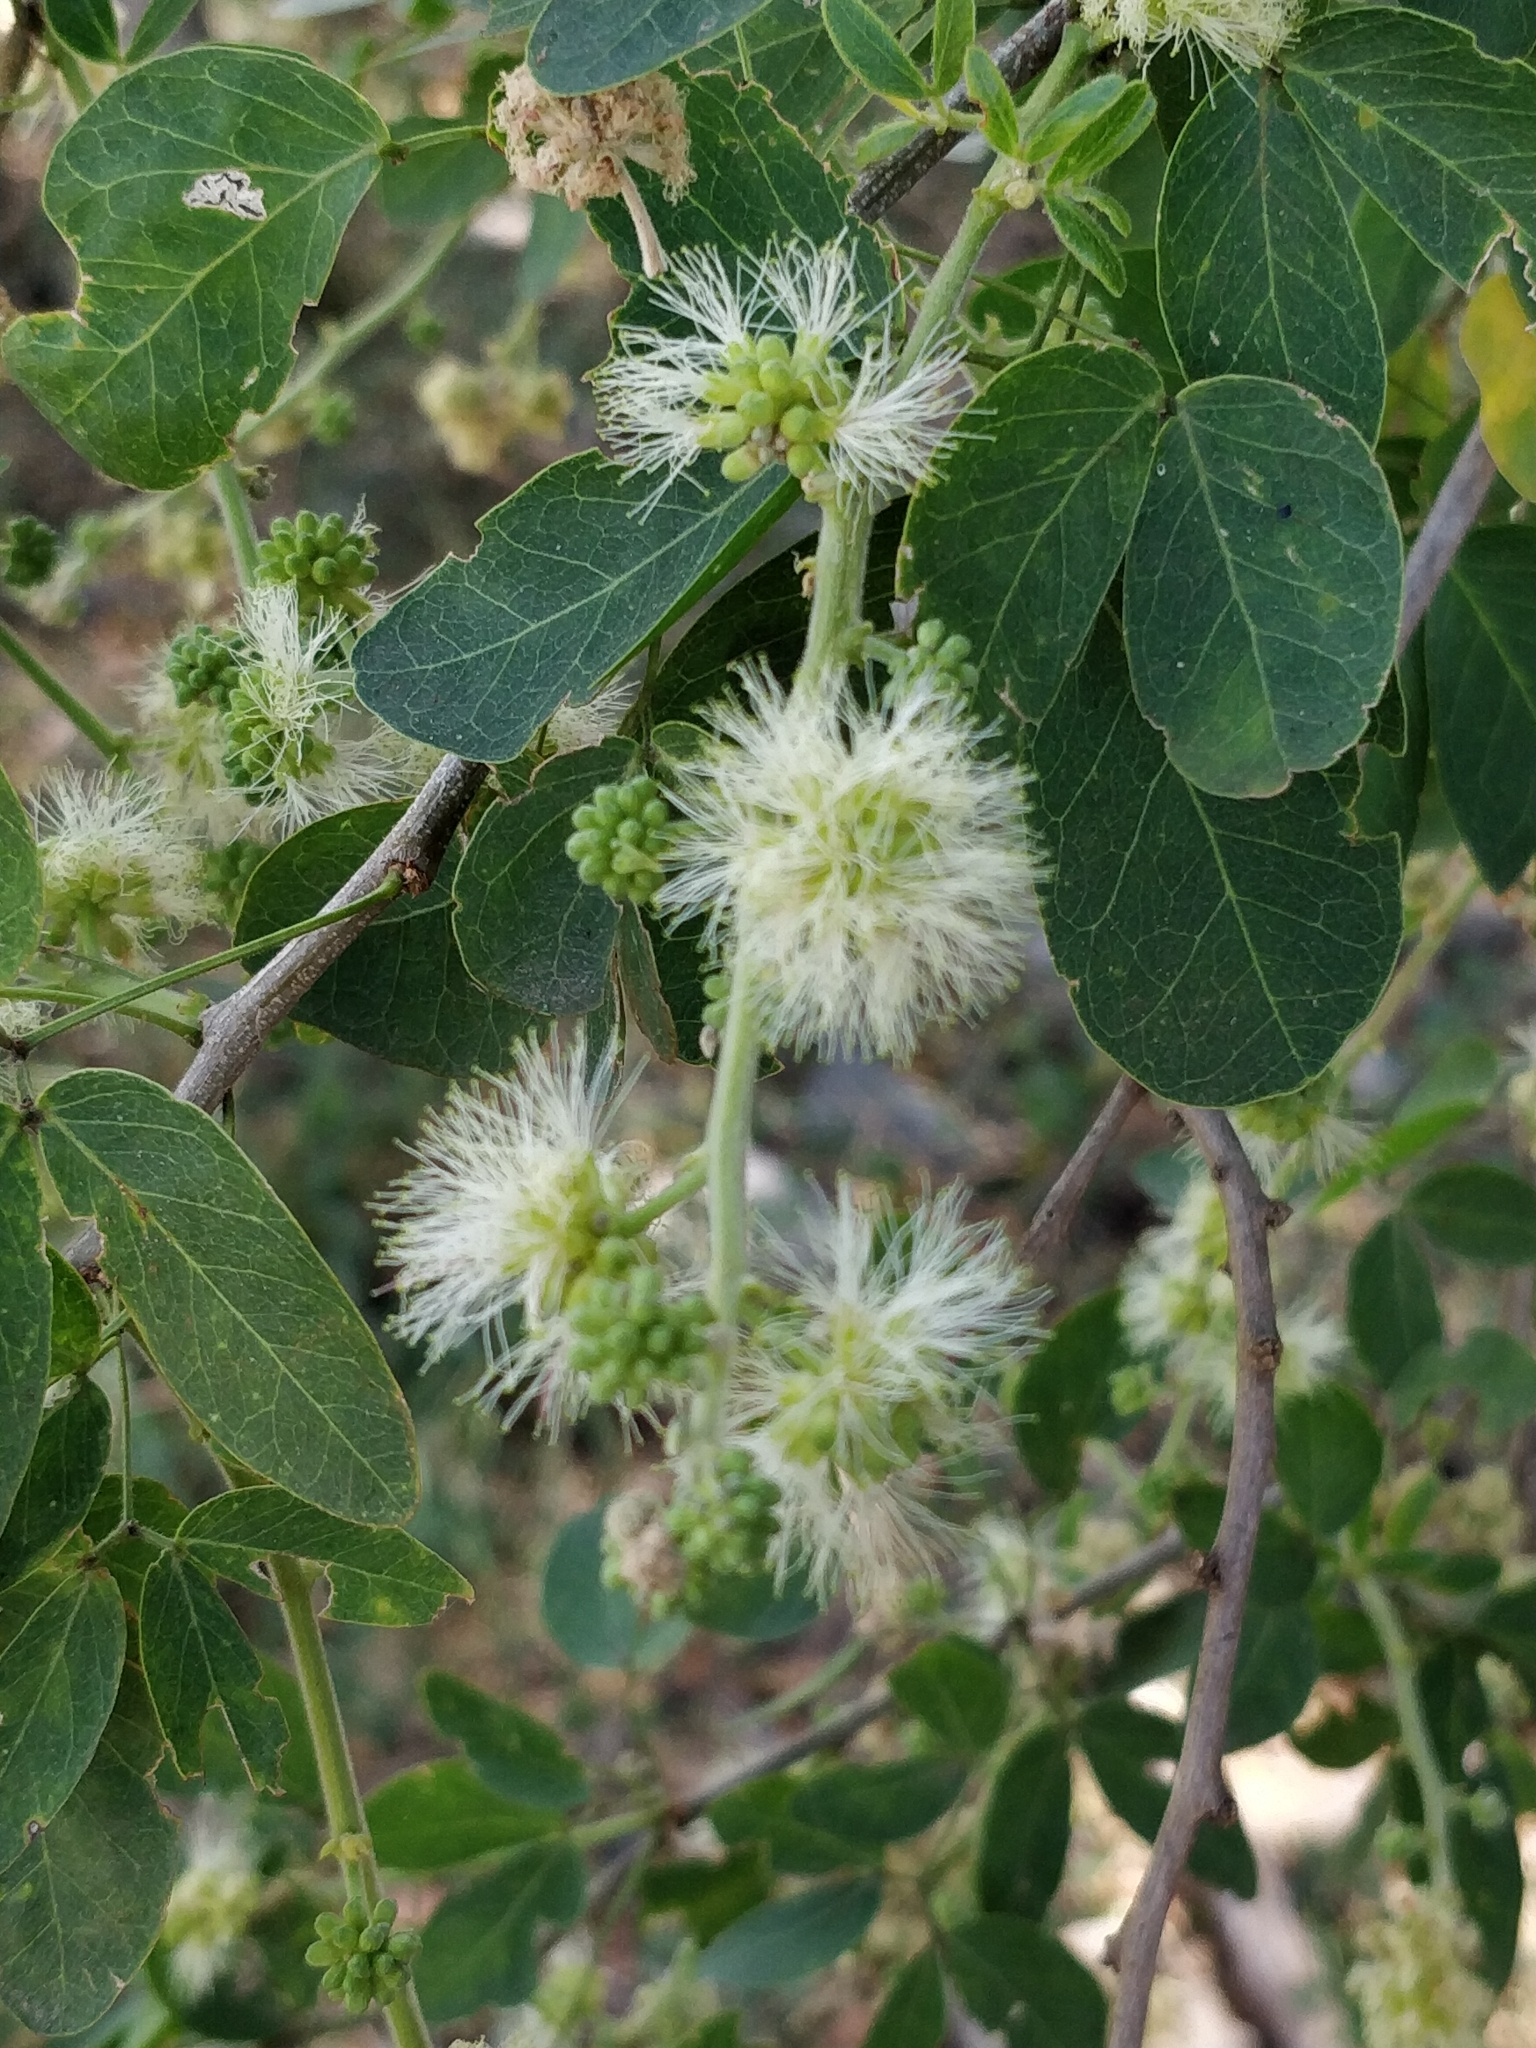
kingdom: Plantae
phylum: Tracheophyta
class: Magnoliopsida
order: Fabales
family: Fabaceae
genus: Pithecellobium
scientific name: Pithecellobium dulce
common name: Monkeypod
